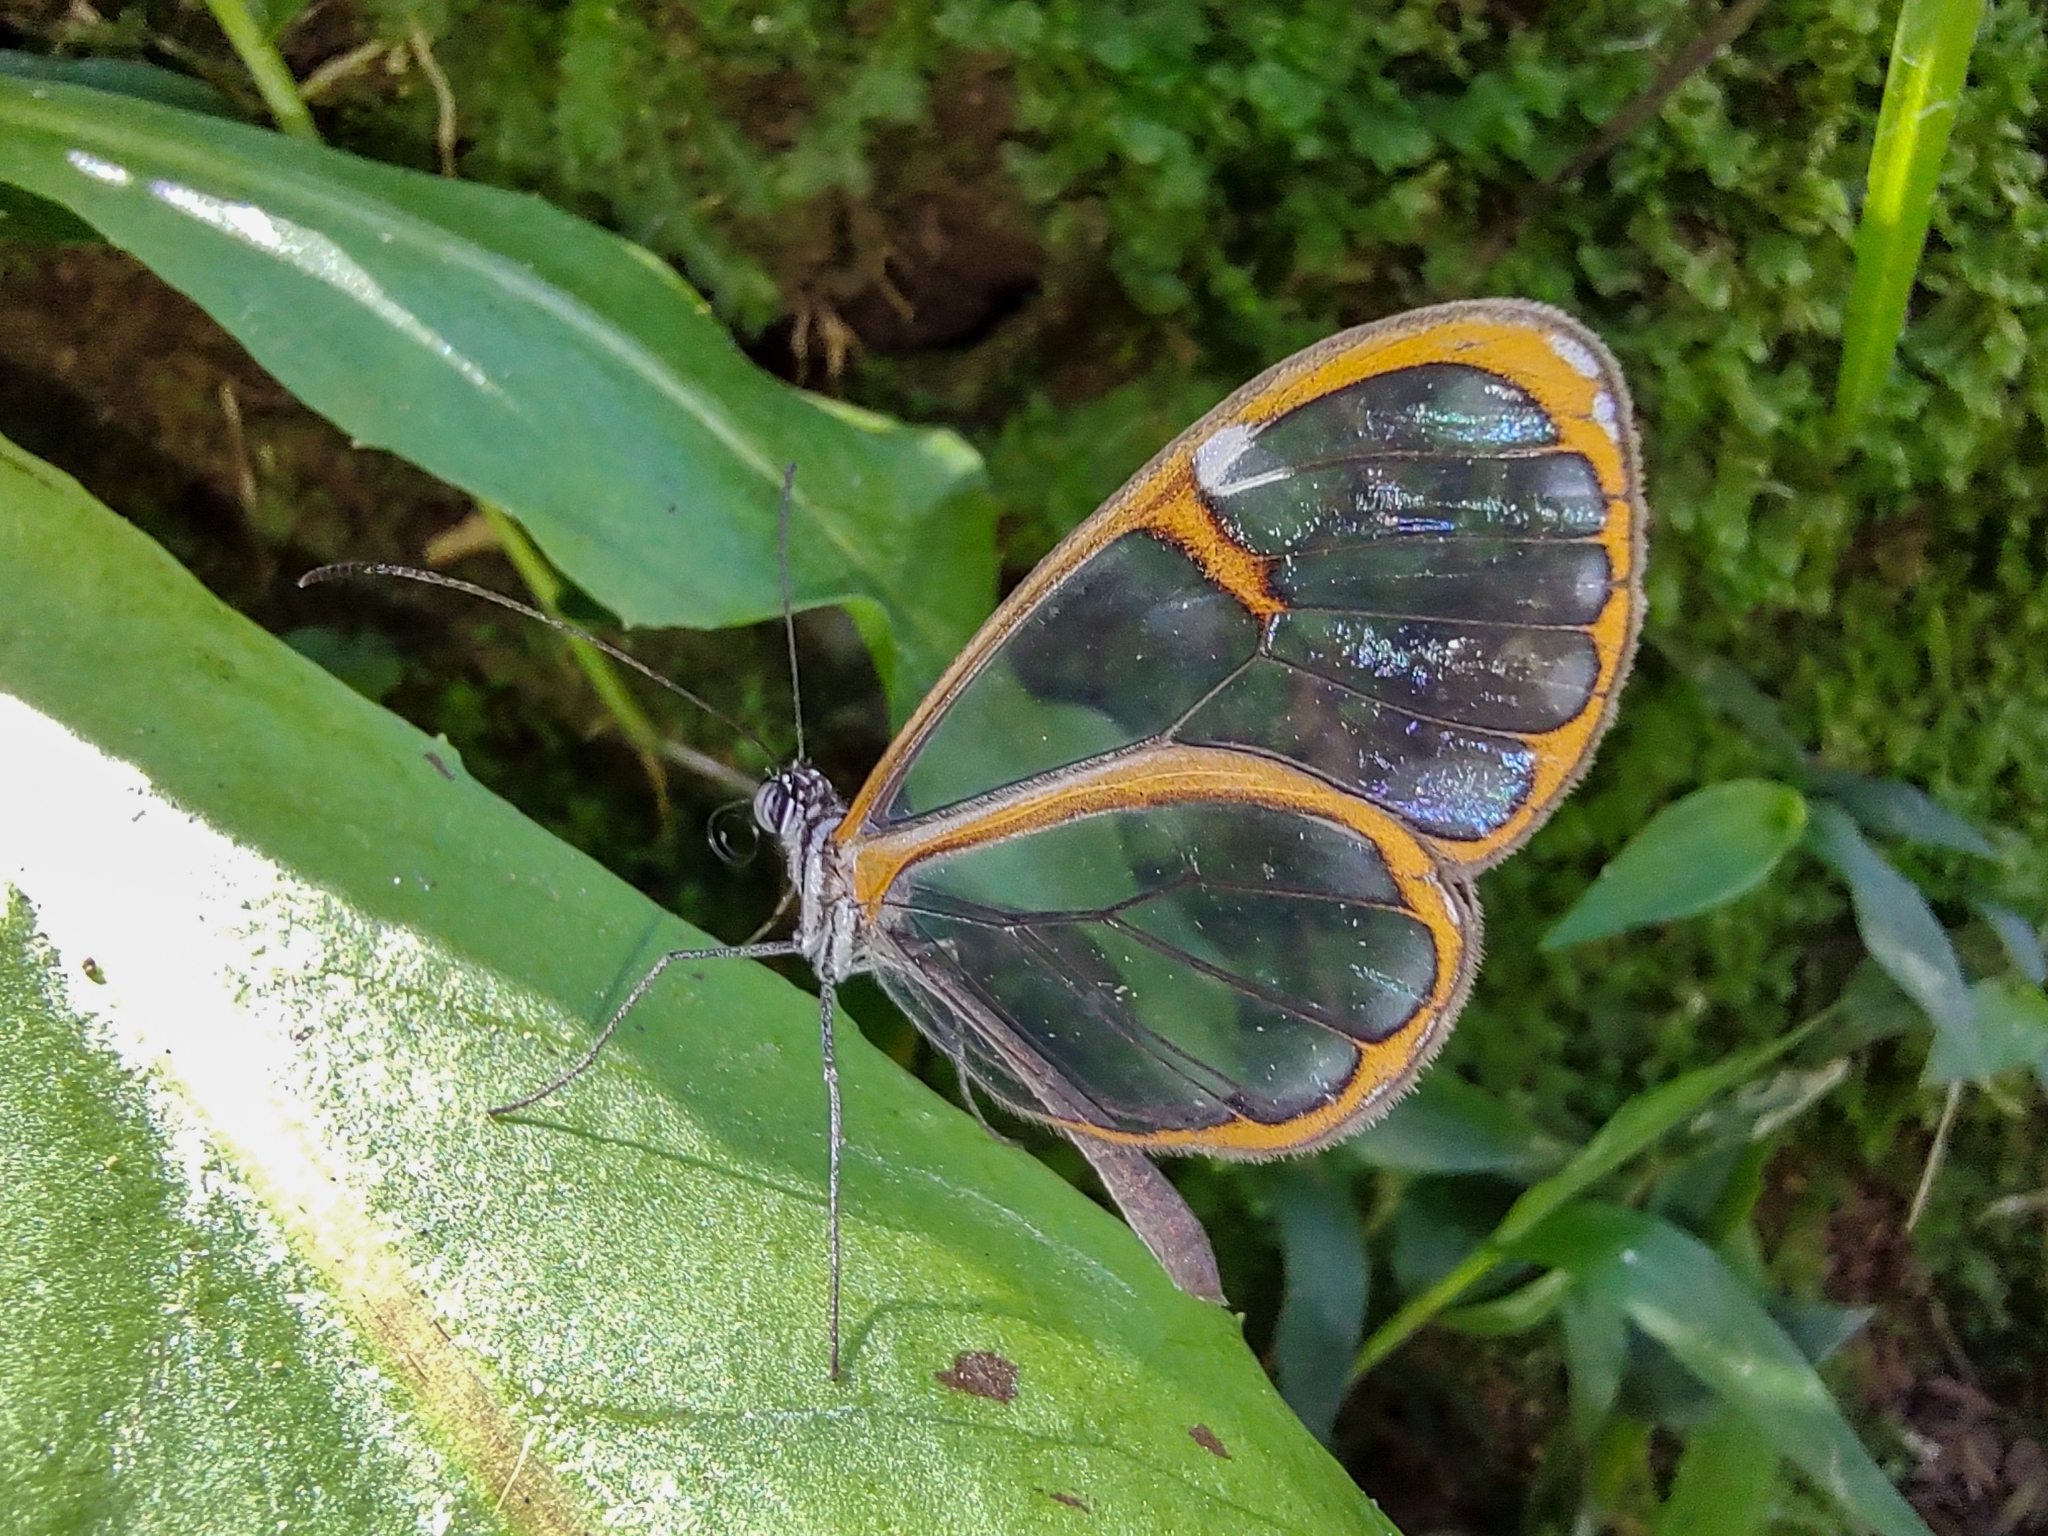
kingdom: Animalia
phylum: Arthropoda
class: Insecta
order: Lepidoptera
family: Nymphalidae
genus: Pseudoscada
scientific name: Pseudoscada erruca
